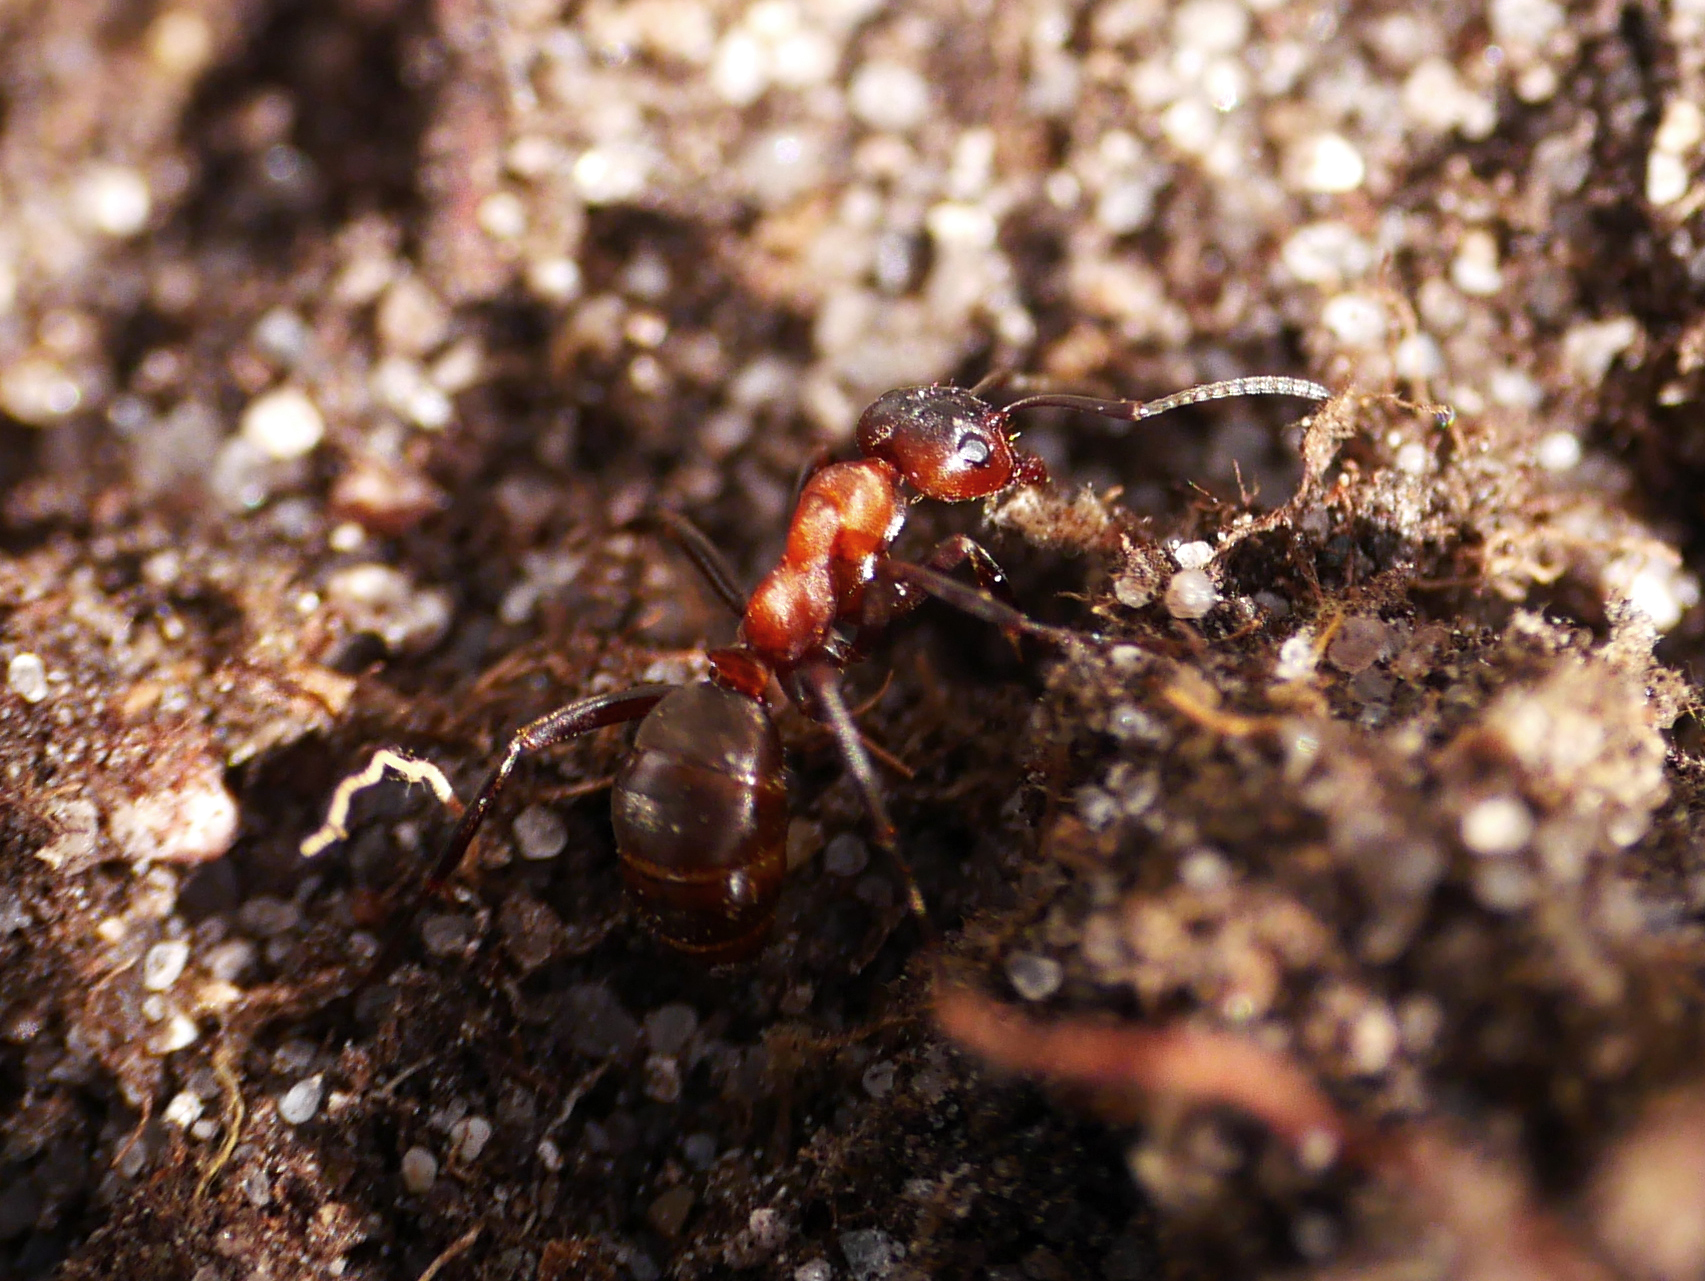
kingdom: Animalia
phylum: Arthropoda
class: Insecta
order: Hymenoptera
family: Formicidae
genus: Formica
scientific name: Formica sanguinea
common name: Blood-red ant
